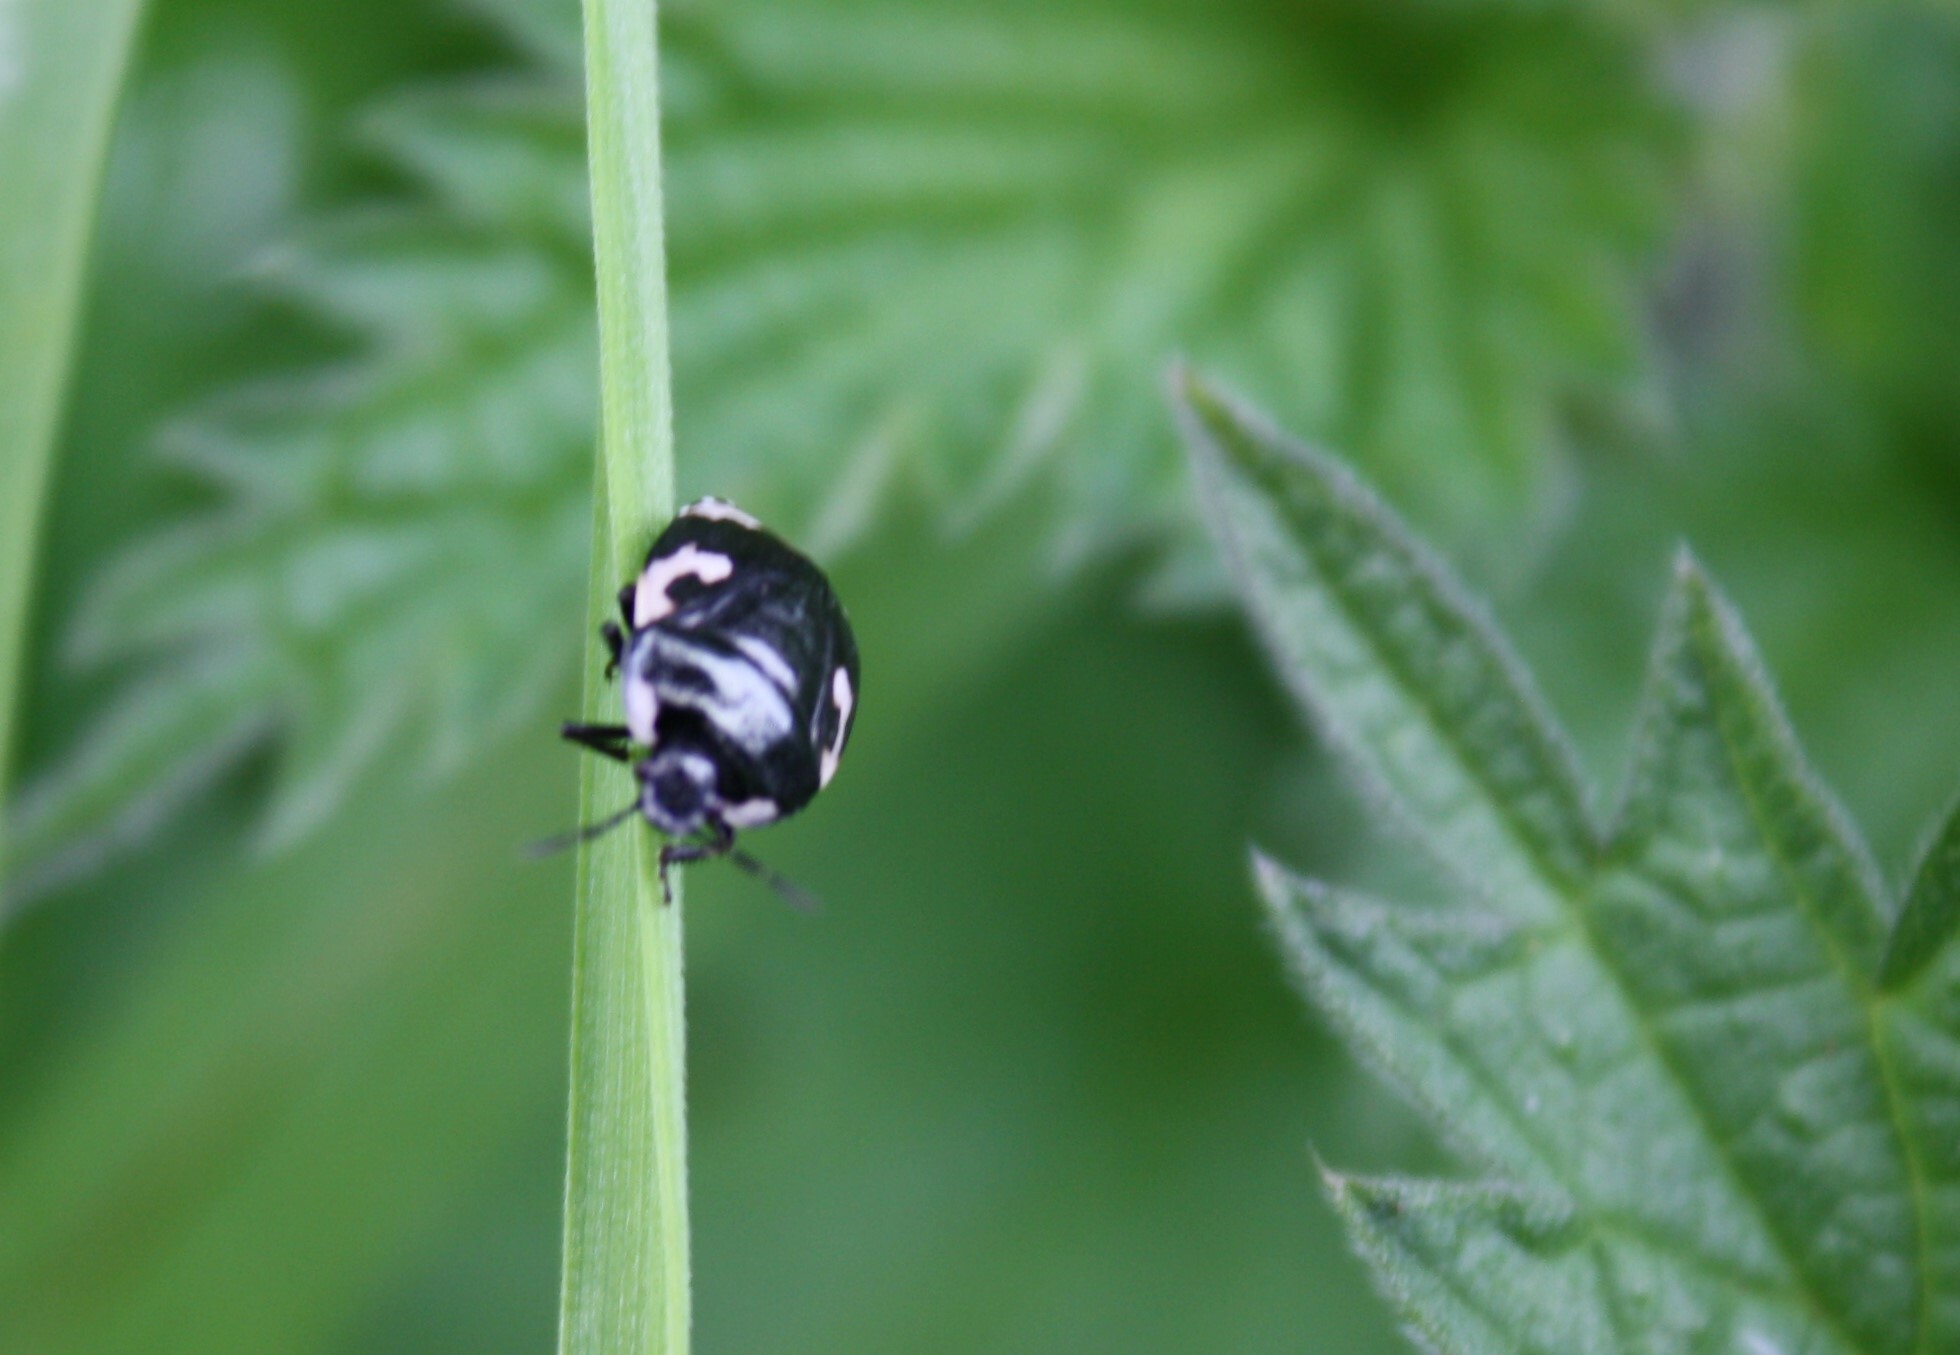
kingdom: Animalia
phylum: Arthropoda
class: Insecta
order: Hemiptera
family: Cydnidae
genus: Tritomegas
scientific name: Tritomegas bicolor
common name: Pied shieldbug
